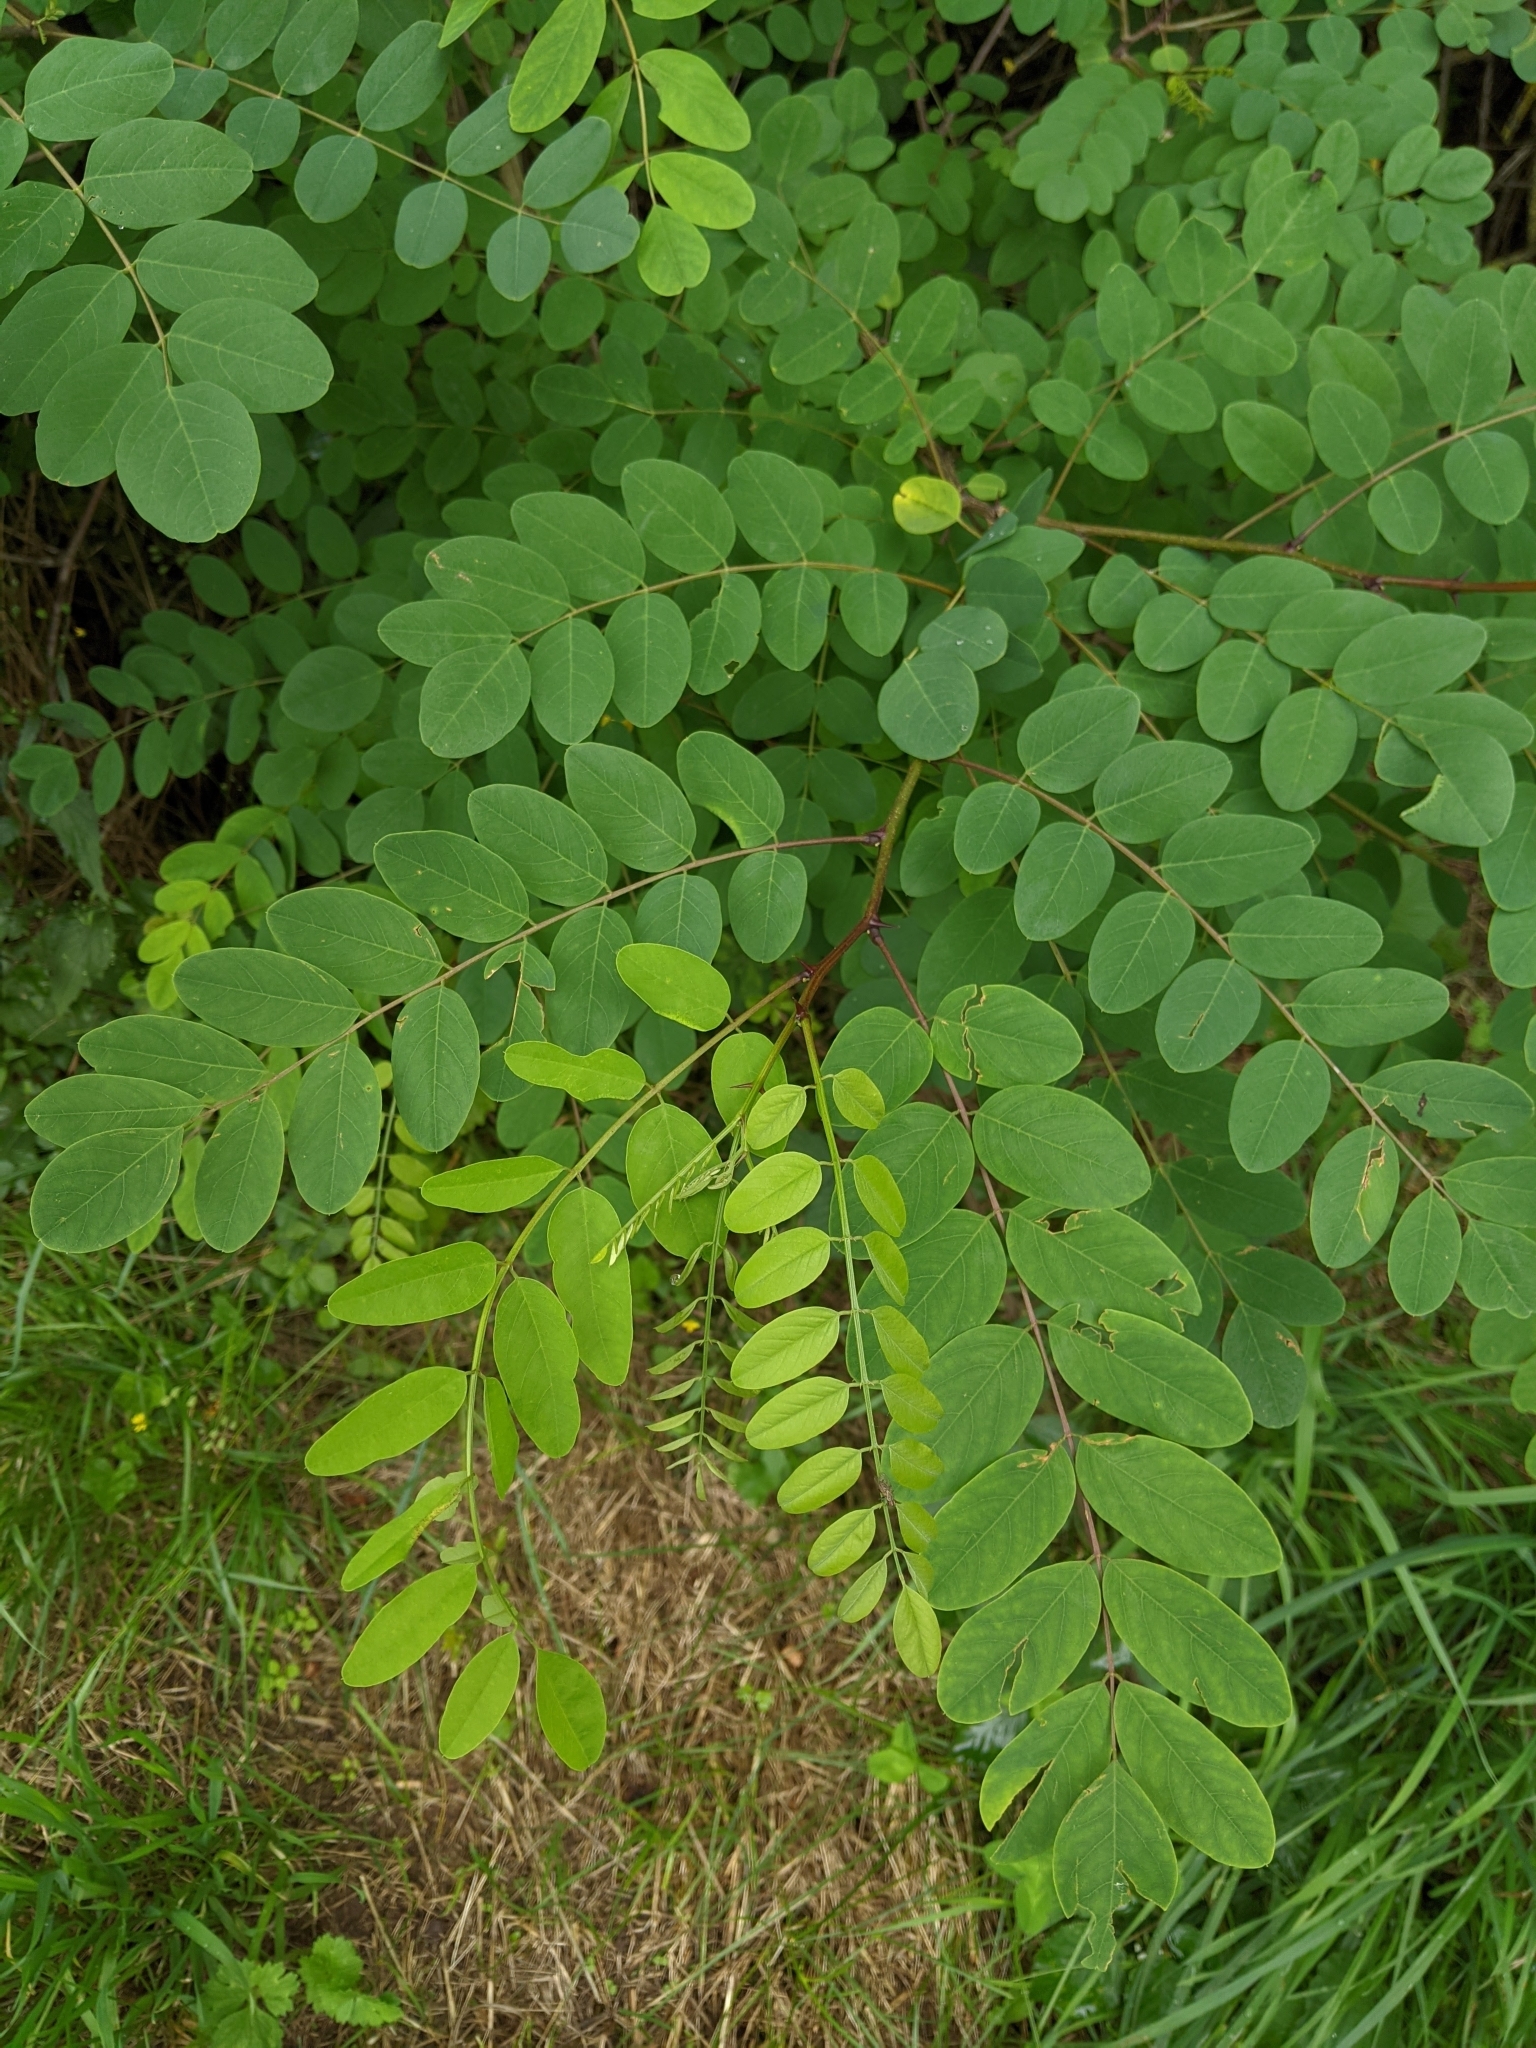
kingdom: Plantae
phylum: Tracheophyta
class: Magnoliopsida
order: Fabales
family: Fabaceae
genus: Robinia
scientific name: Robinia pseudoacacia
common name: Black locust
